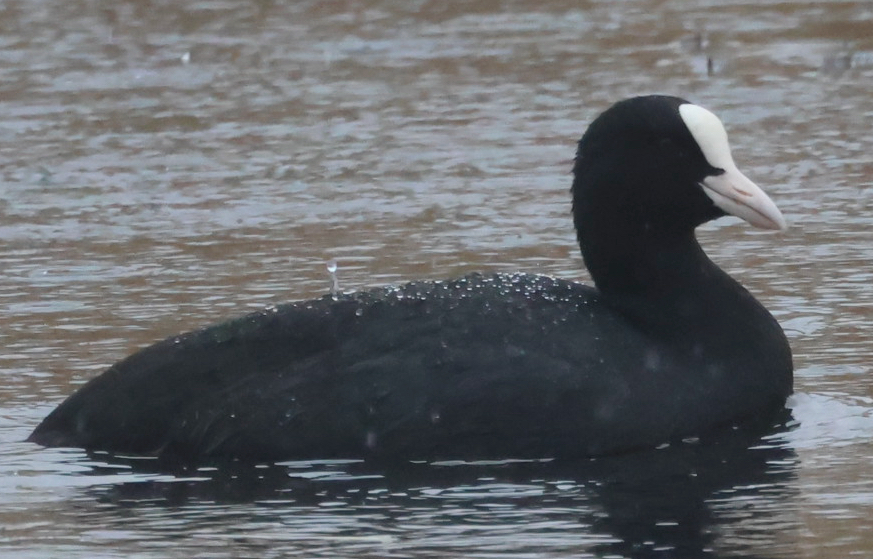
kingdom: Animalia
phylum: Chordata
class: Aves
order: Gruiformes
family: Rallidae
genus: Fulica
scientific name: Fulica atra
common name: Eurasian coot
